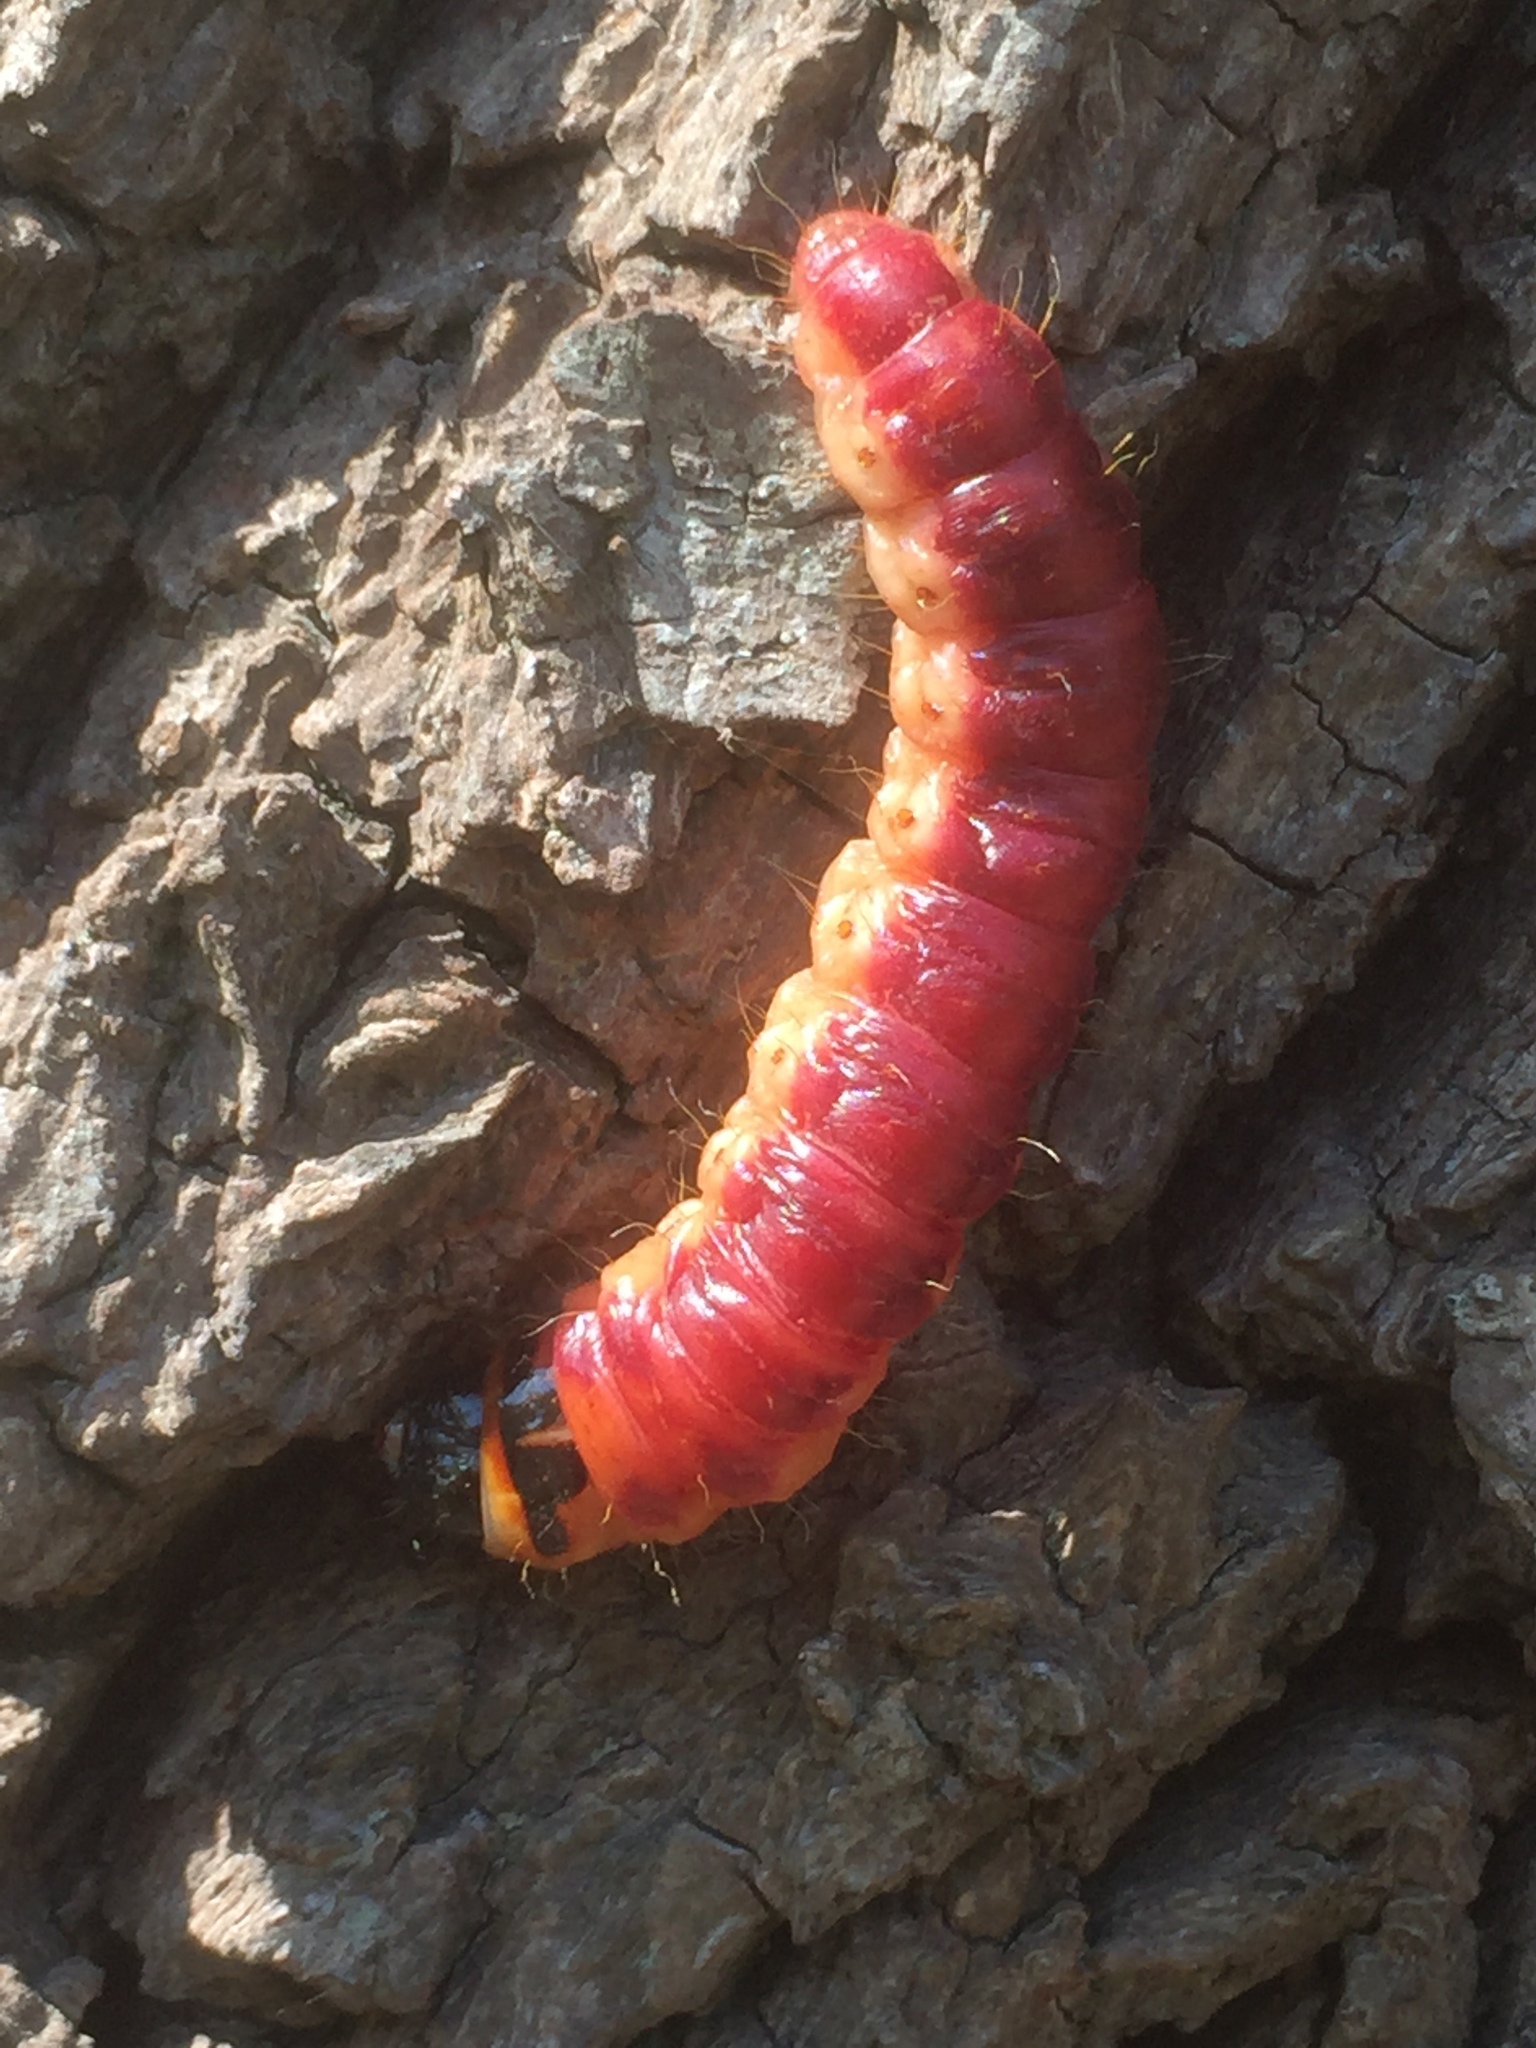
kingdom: Animalia
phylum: Arthropoda
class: Insecta
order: Lepidoptera
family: Cossidae
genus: Cossus
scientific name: Cossus cossus
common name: Goat moth
